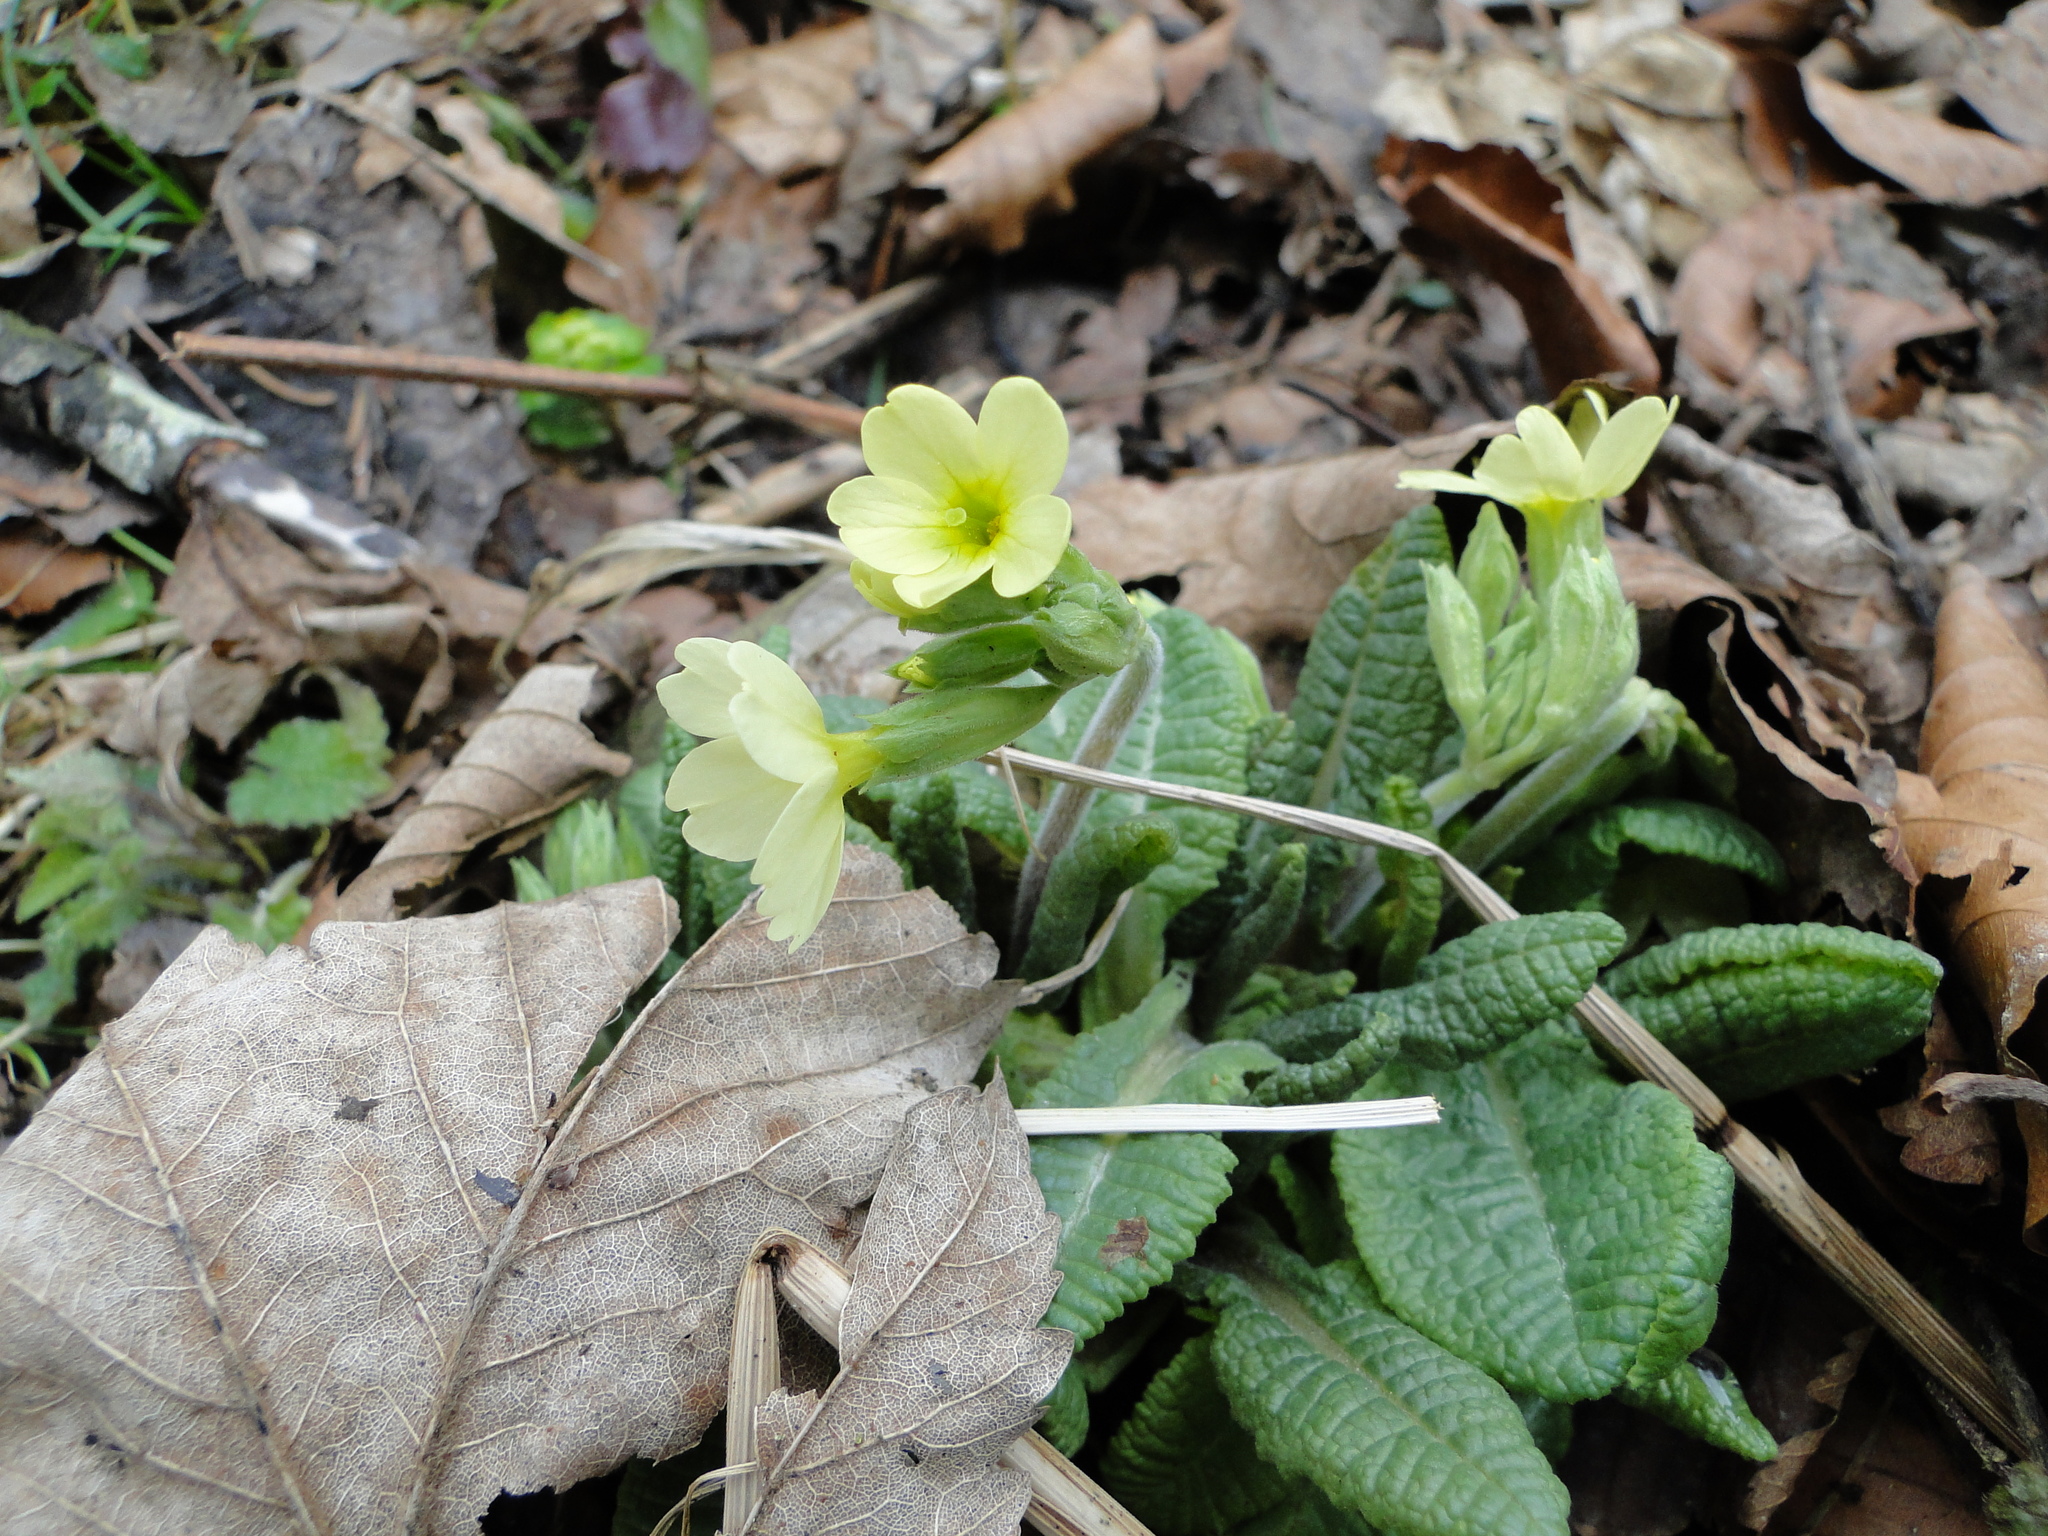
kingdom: Plantae
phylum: Tracheophyta
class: Magnoliopsida
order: Ericales
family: Primulaceae
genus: Primula
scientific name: Primula elatior
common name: Oxlip
